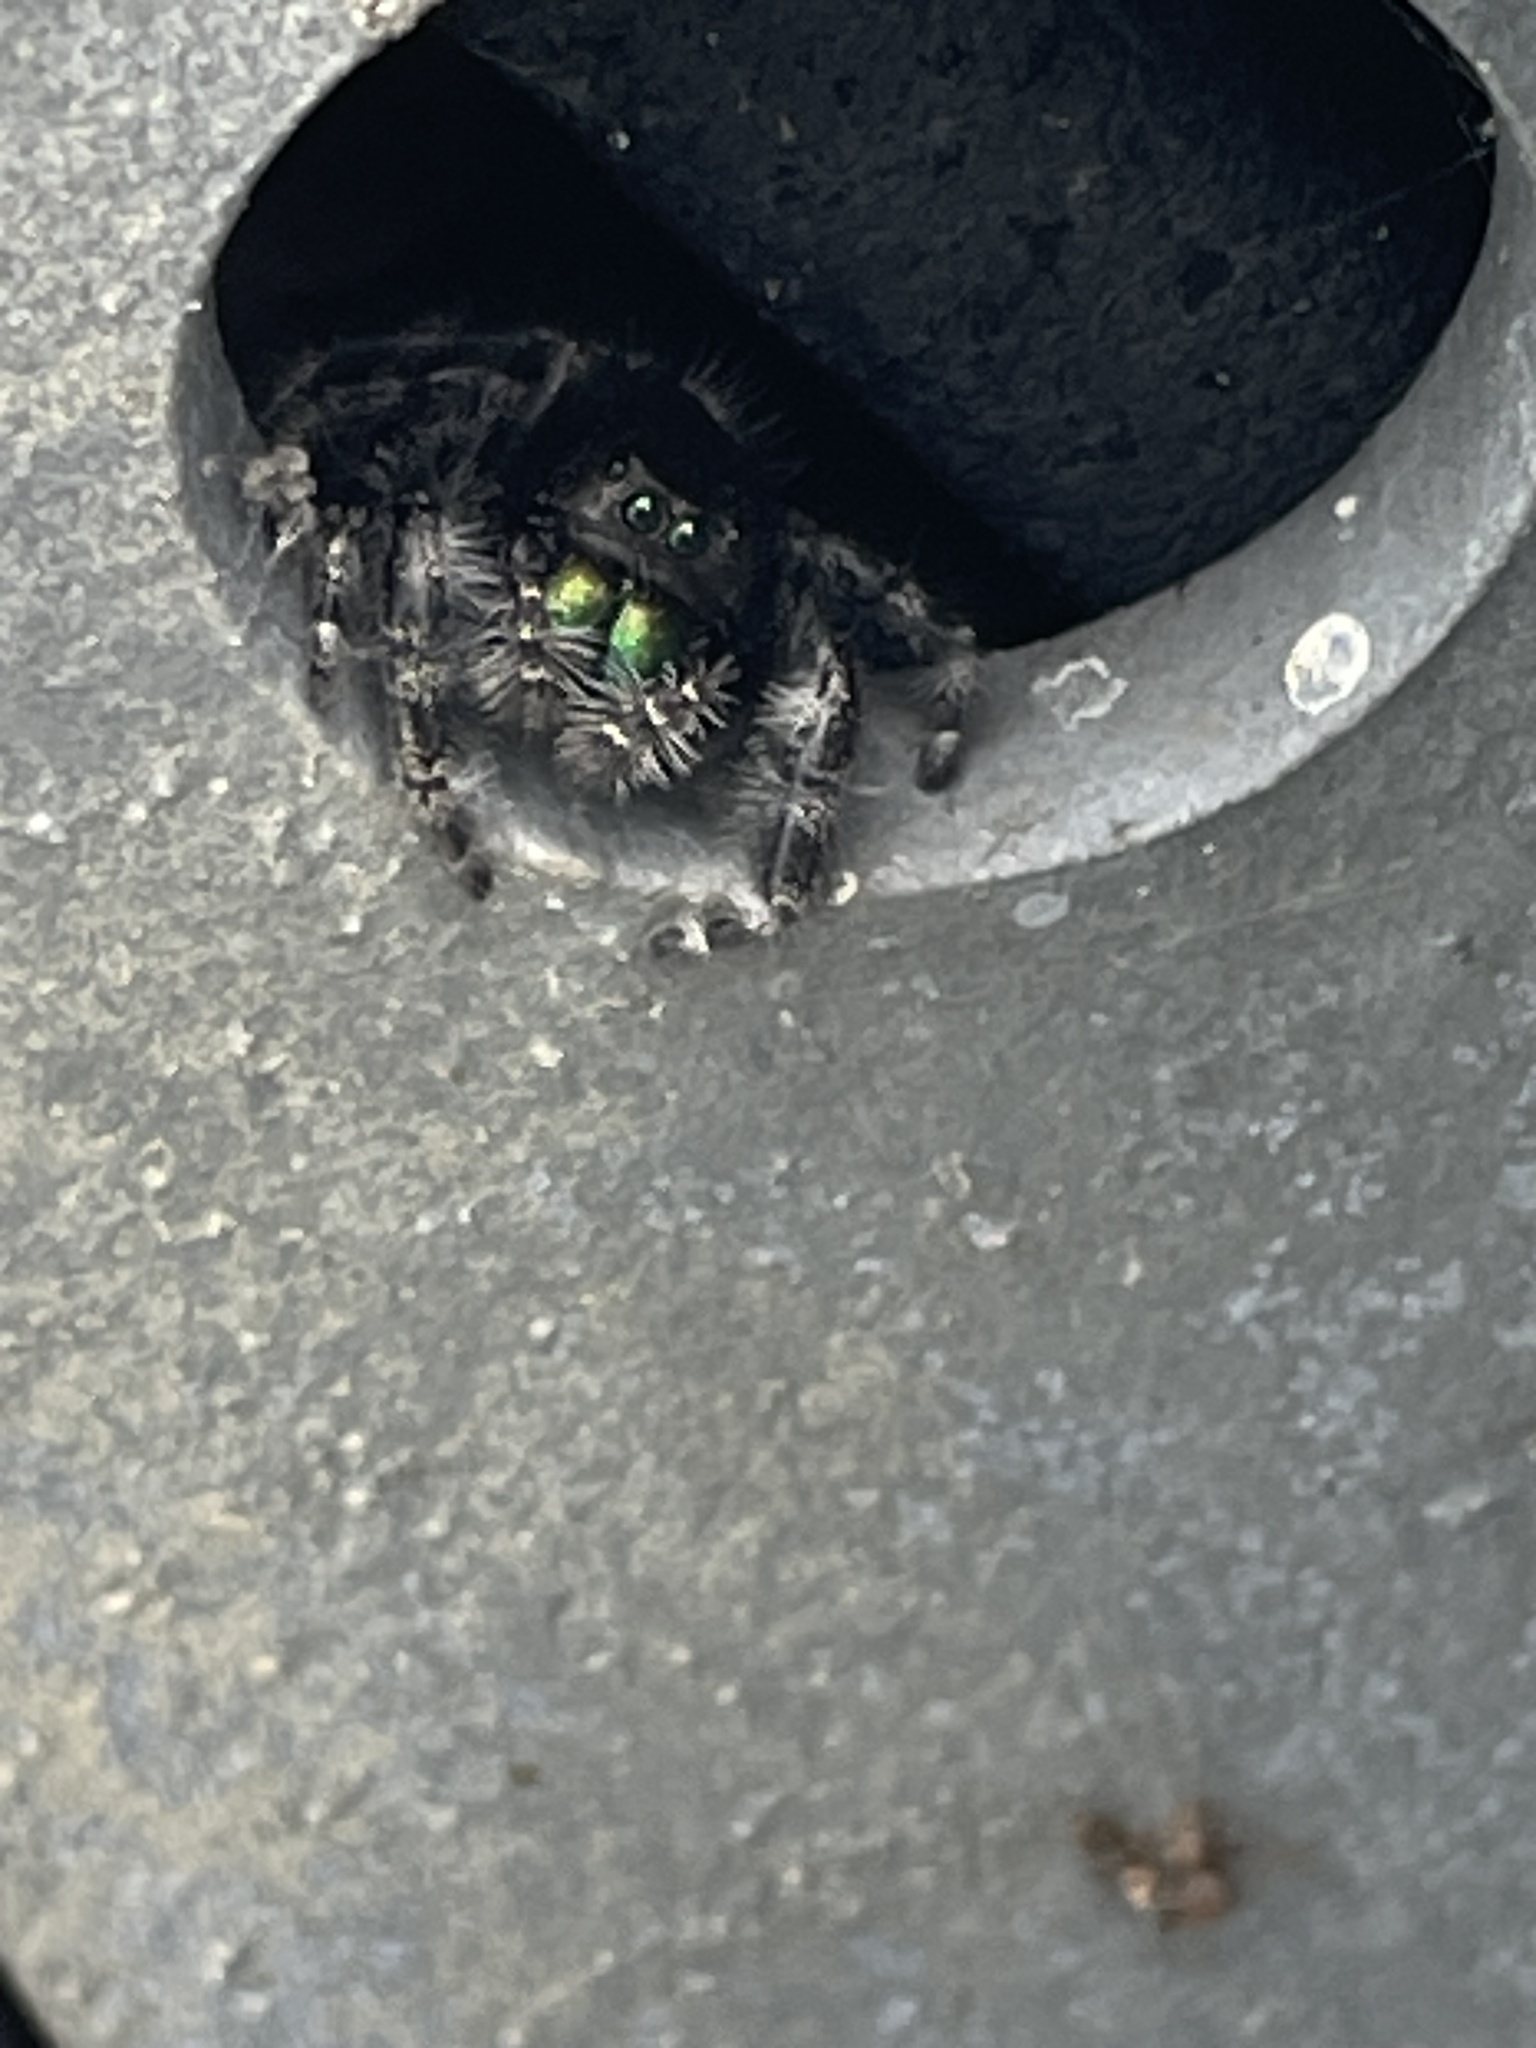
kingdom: Animalia
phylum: Arthropoda
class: Arachnida
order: Araneae
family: Salticidae
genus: Phidippus
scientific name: Phidippus audax
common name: Bold jumper
